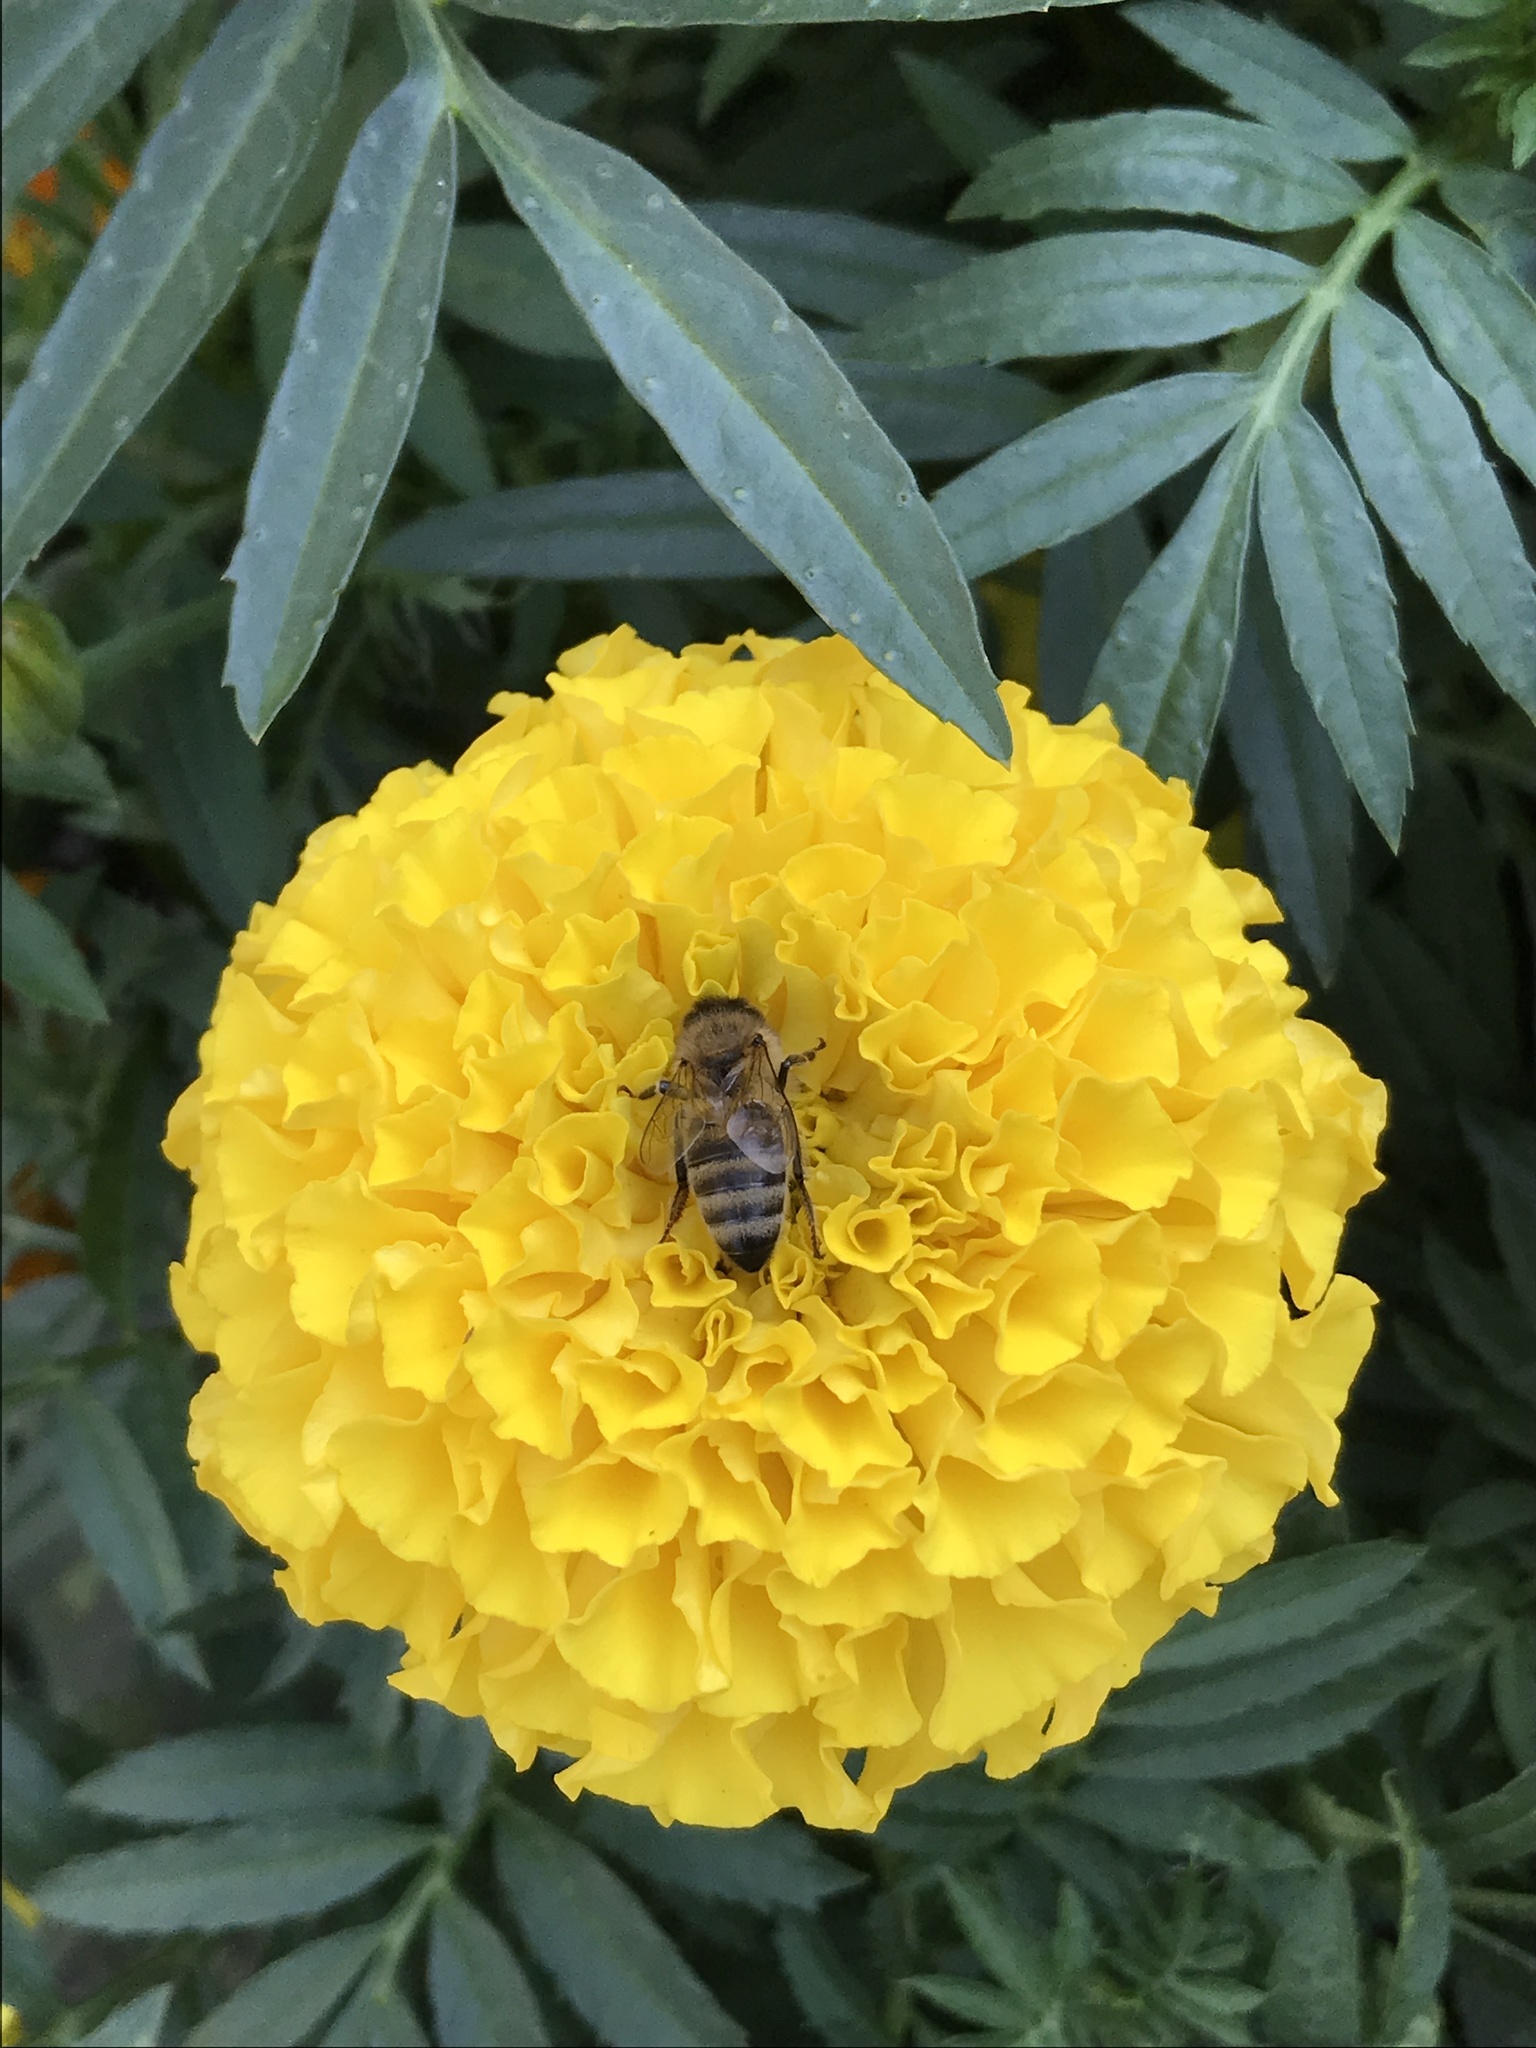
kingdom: Animalia
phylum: Arthropoda
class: Insecta
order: Hymenoptera
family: Apidae
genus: Apis
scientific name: Apis mellifera
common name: Honey bee
